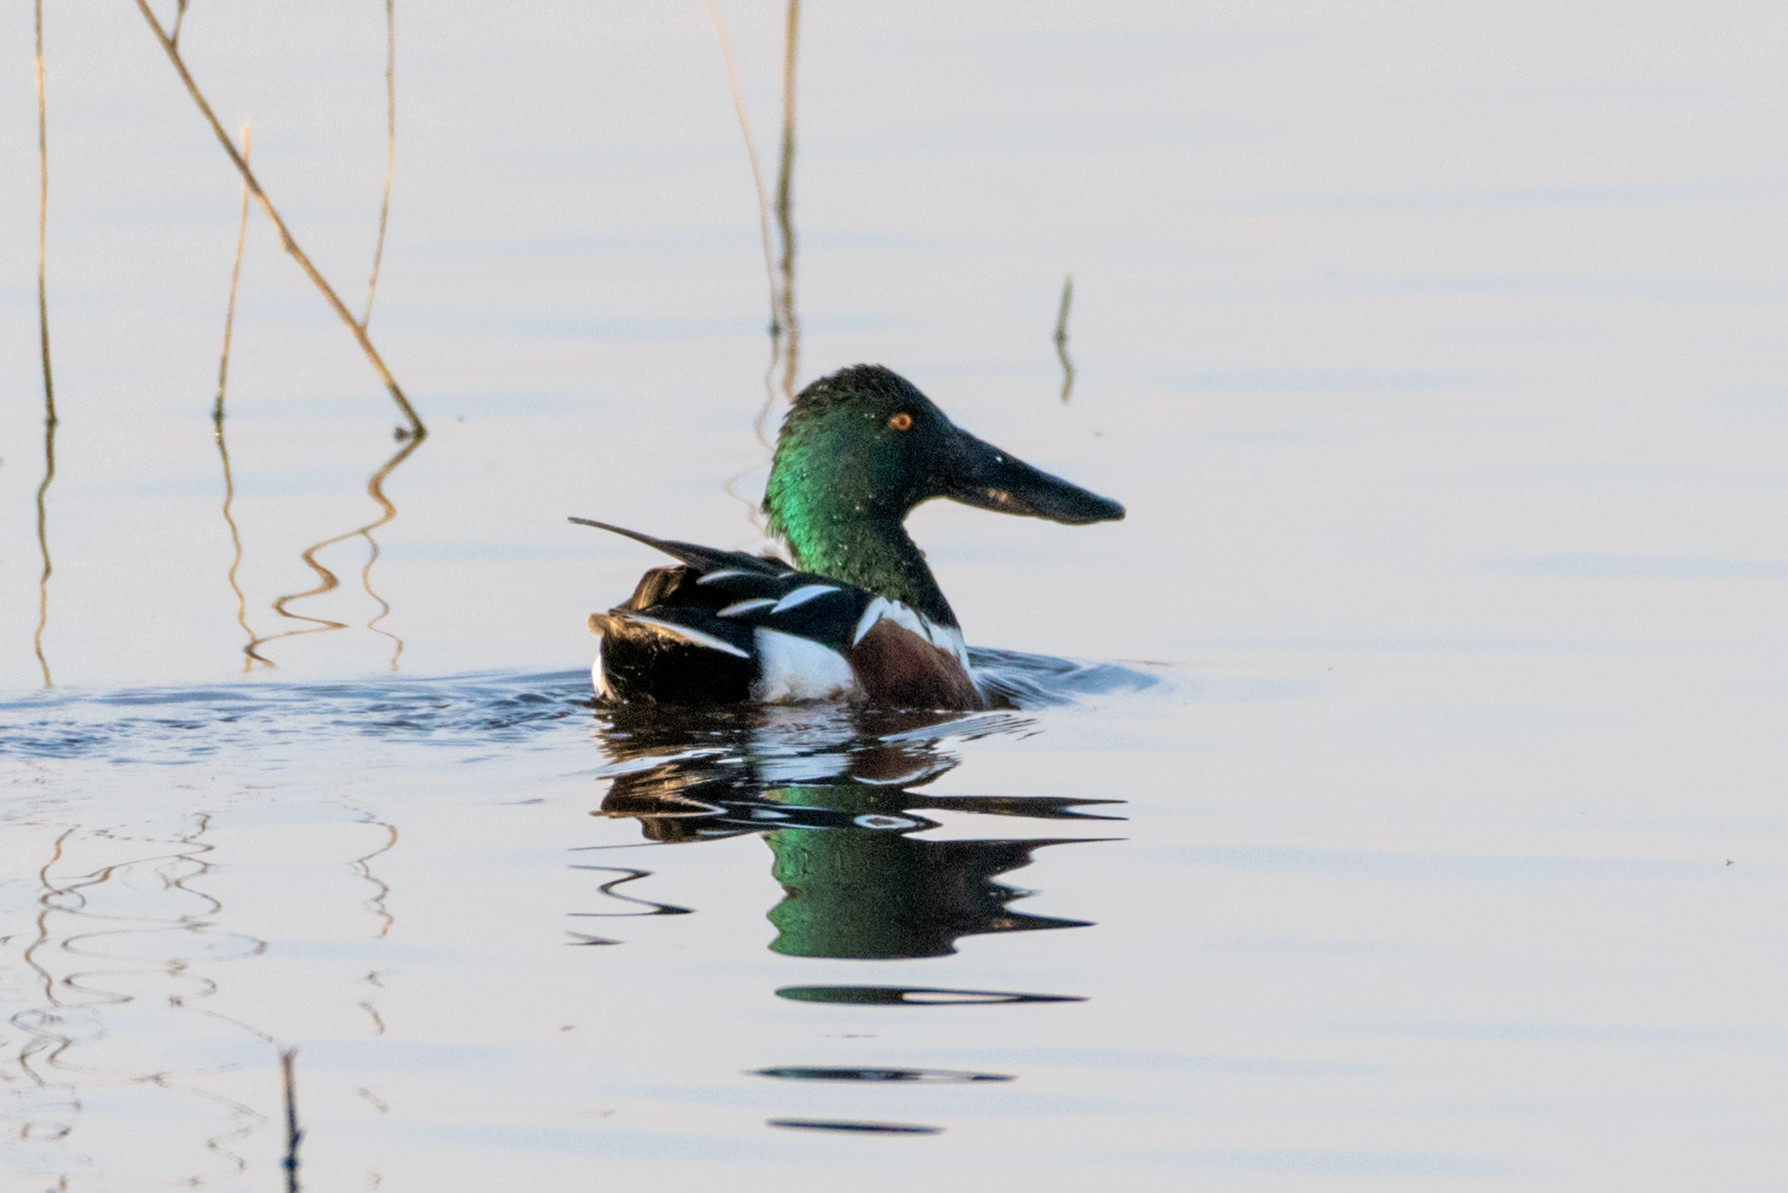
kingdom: Animalia
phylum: Chordata
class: Aves
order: Anseriformes
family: Anatidae
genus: Spatula
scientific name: Spatula clypeata
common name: Northern shoveler
